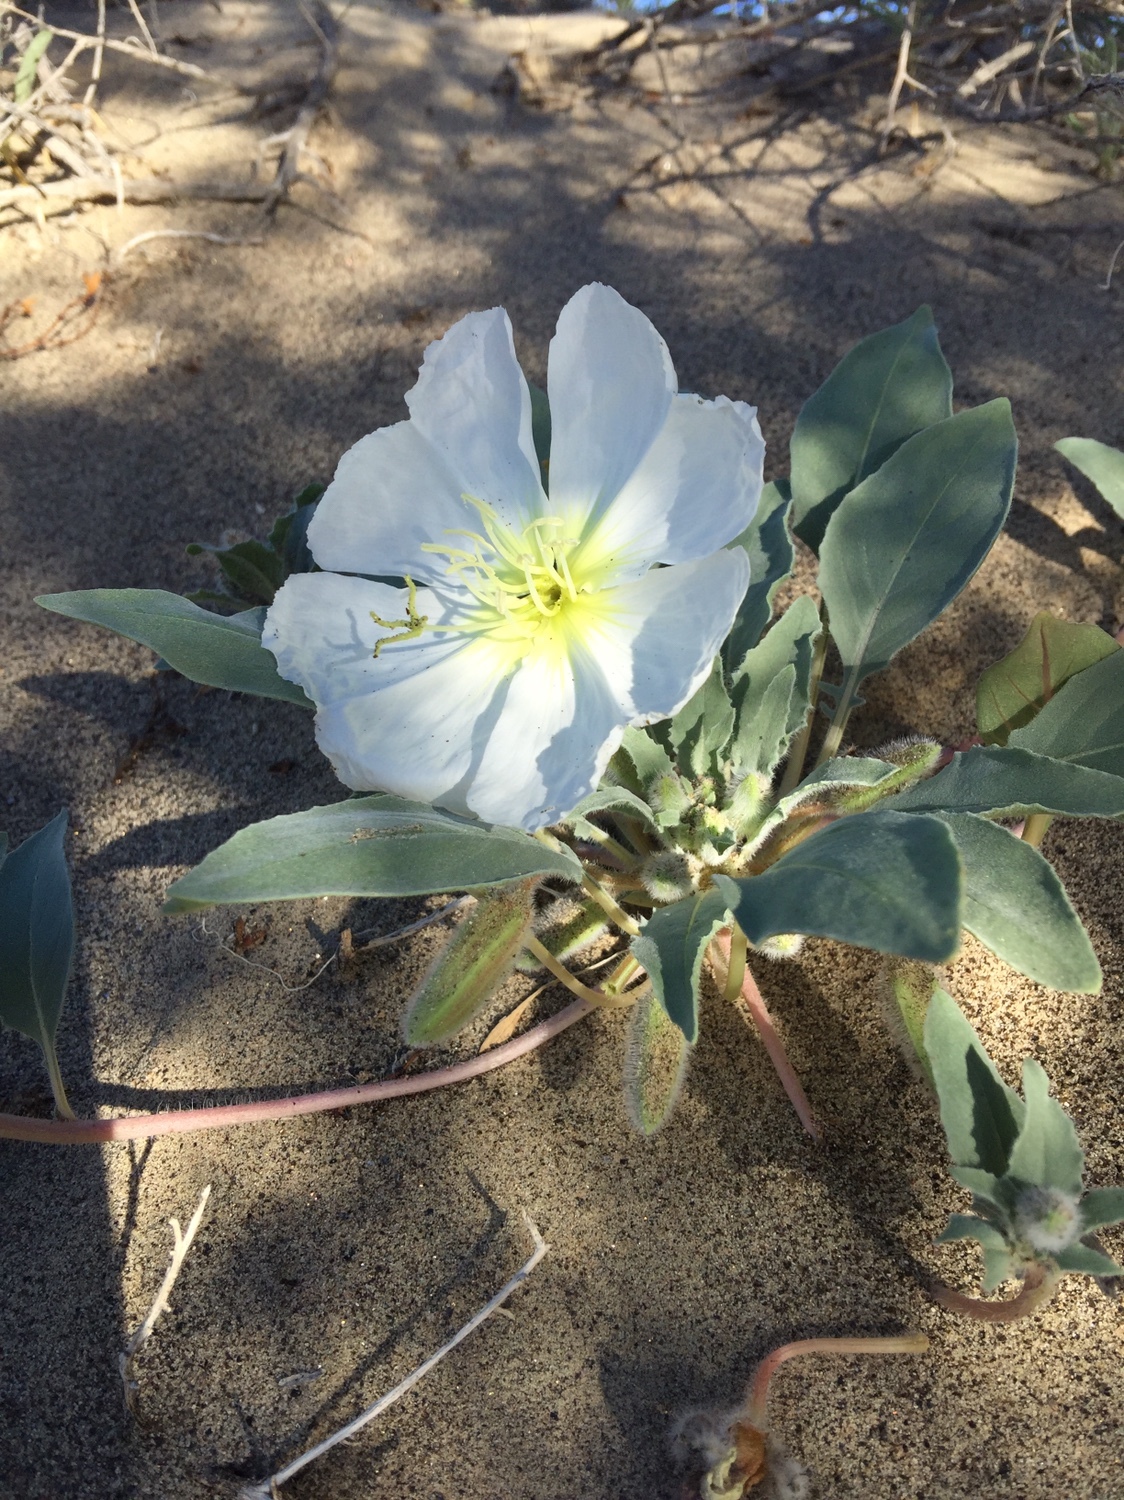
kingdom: Plantae
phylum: Tracheophyta
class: Magnoliopsida
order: Myrtales
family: Onagraceae
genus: Oenothera
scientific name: Oenothera deltoides
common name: Basket evening-primrose
